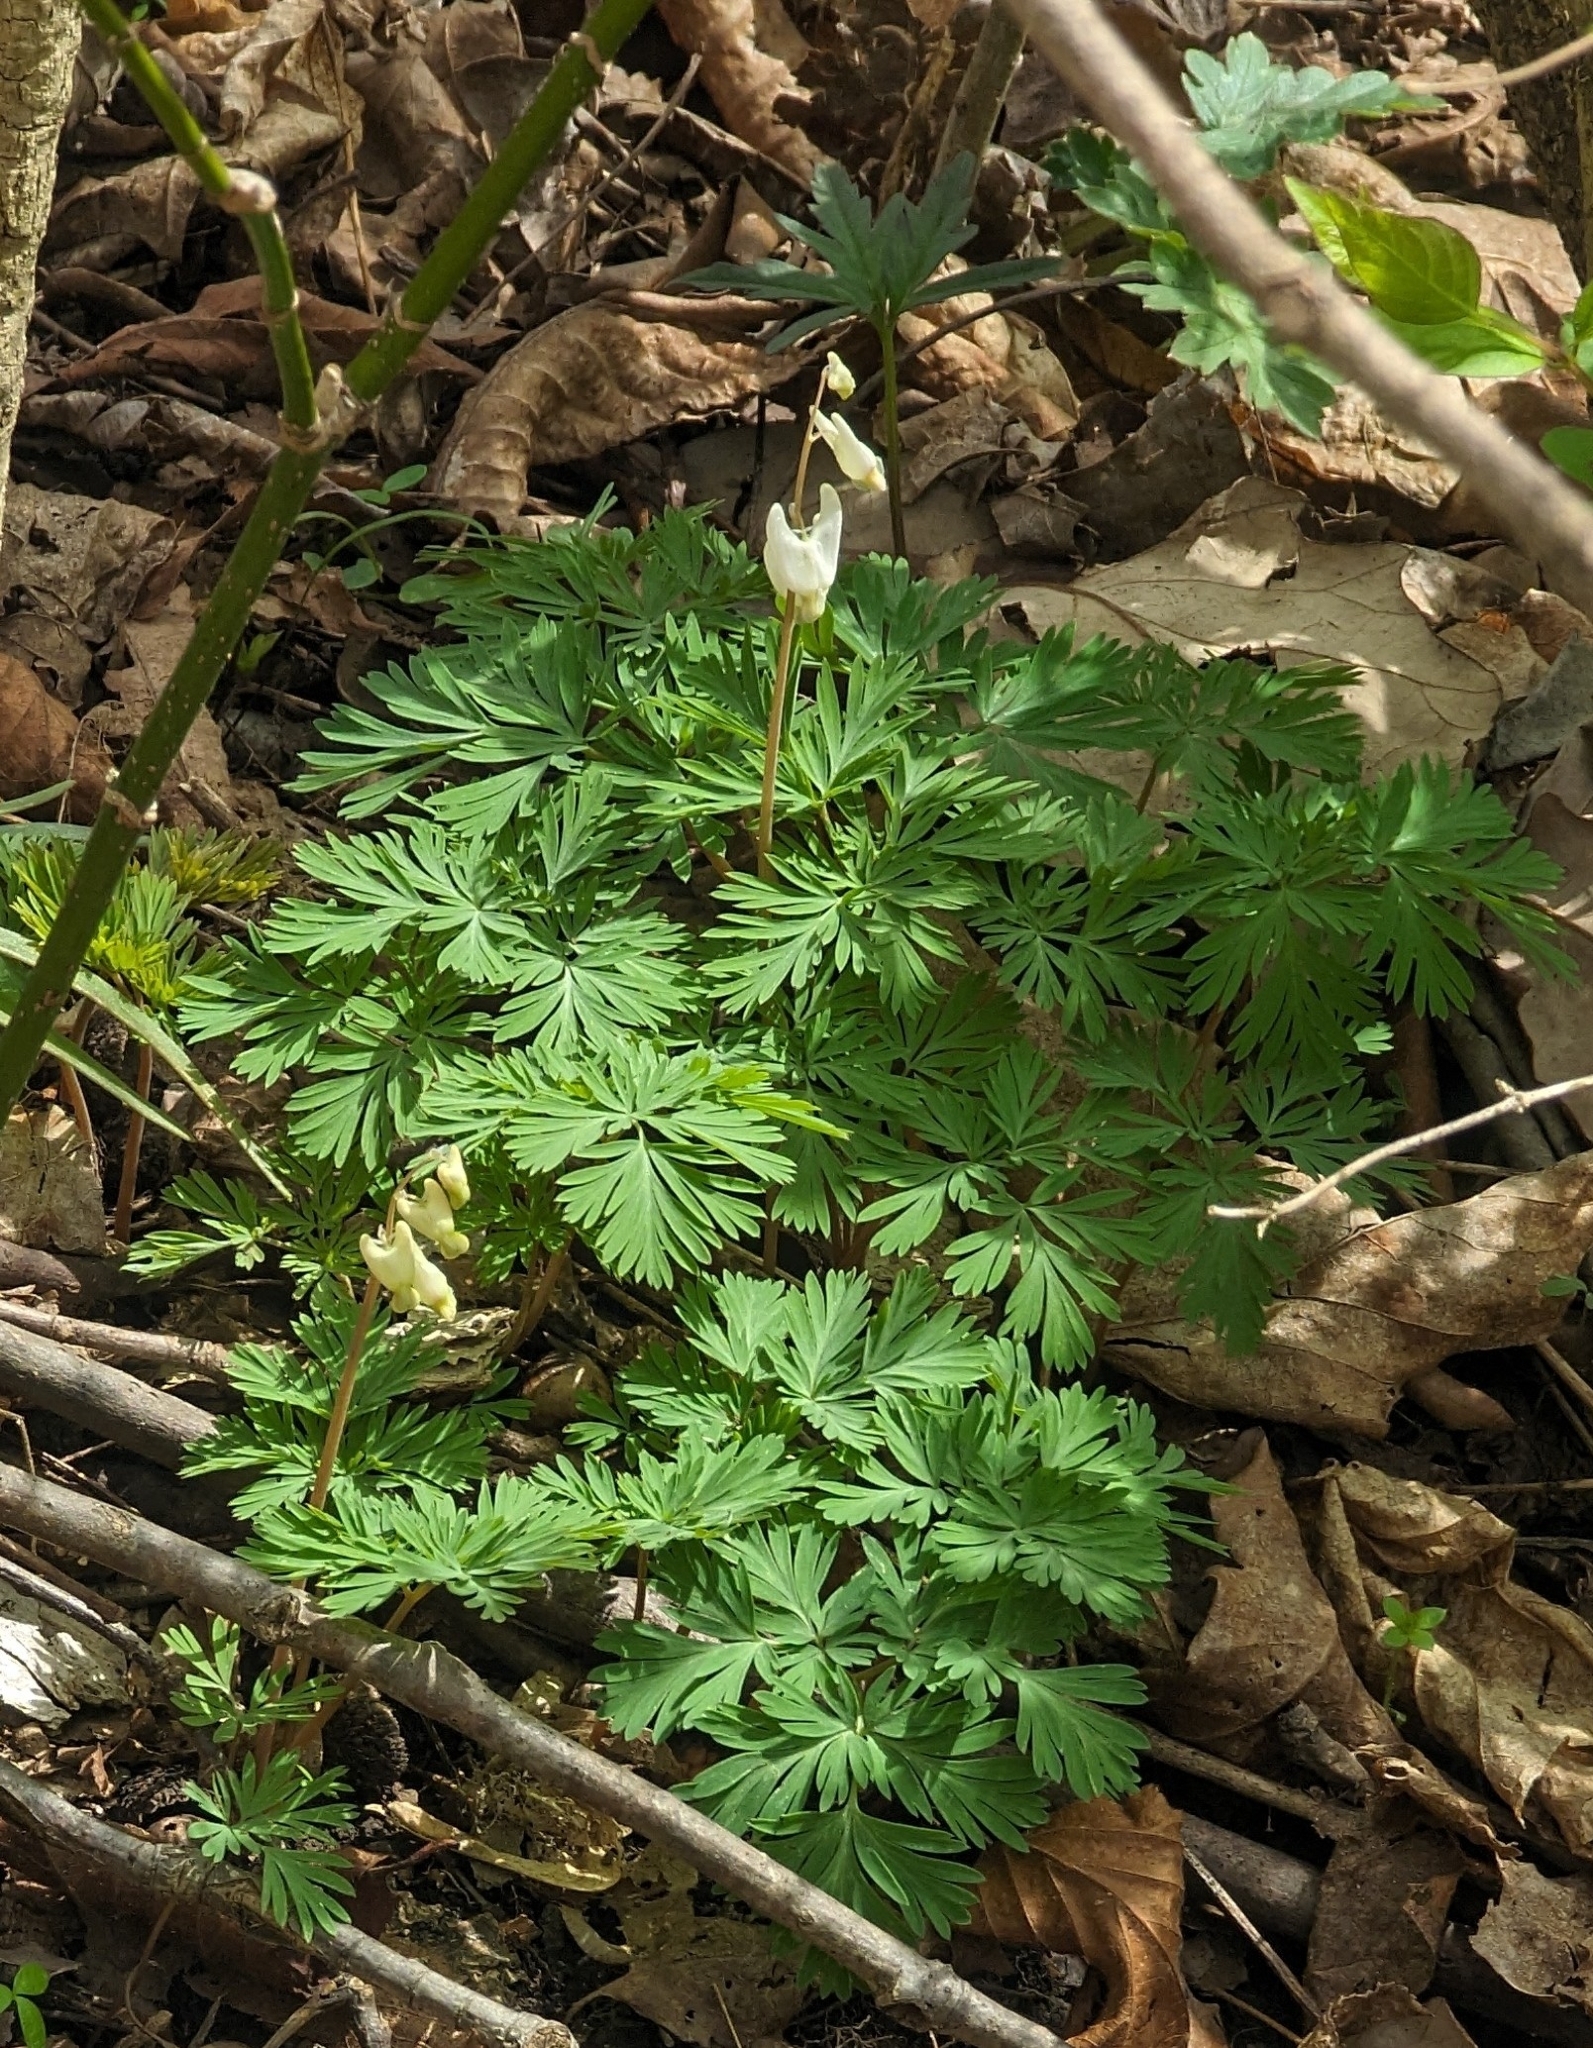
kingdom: Plantae
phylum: Tracheophyta
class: Magnoliopsida
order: Ranunculales
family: Papaveraceae
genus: Dicentra
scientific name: Dicentra cucullaria
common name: Dutchman's breeches
